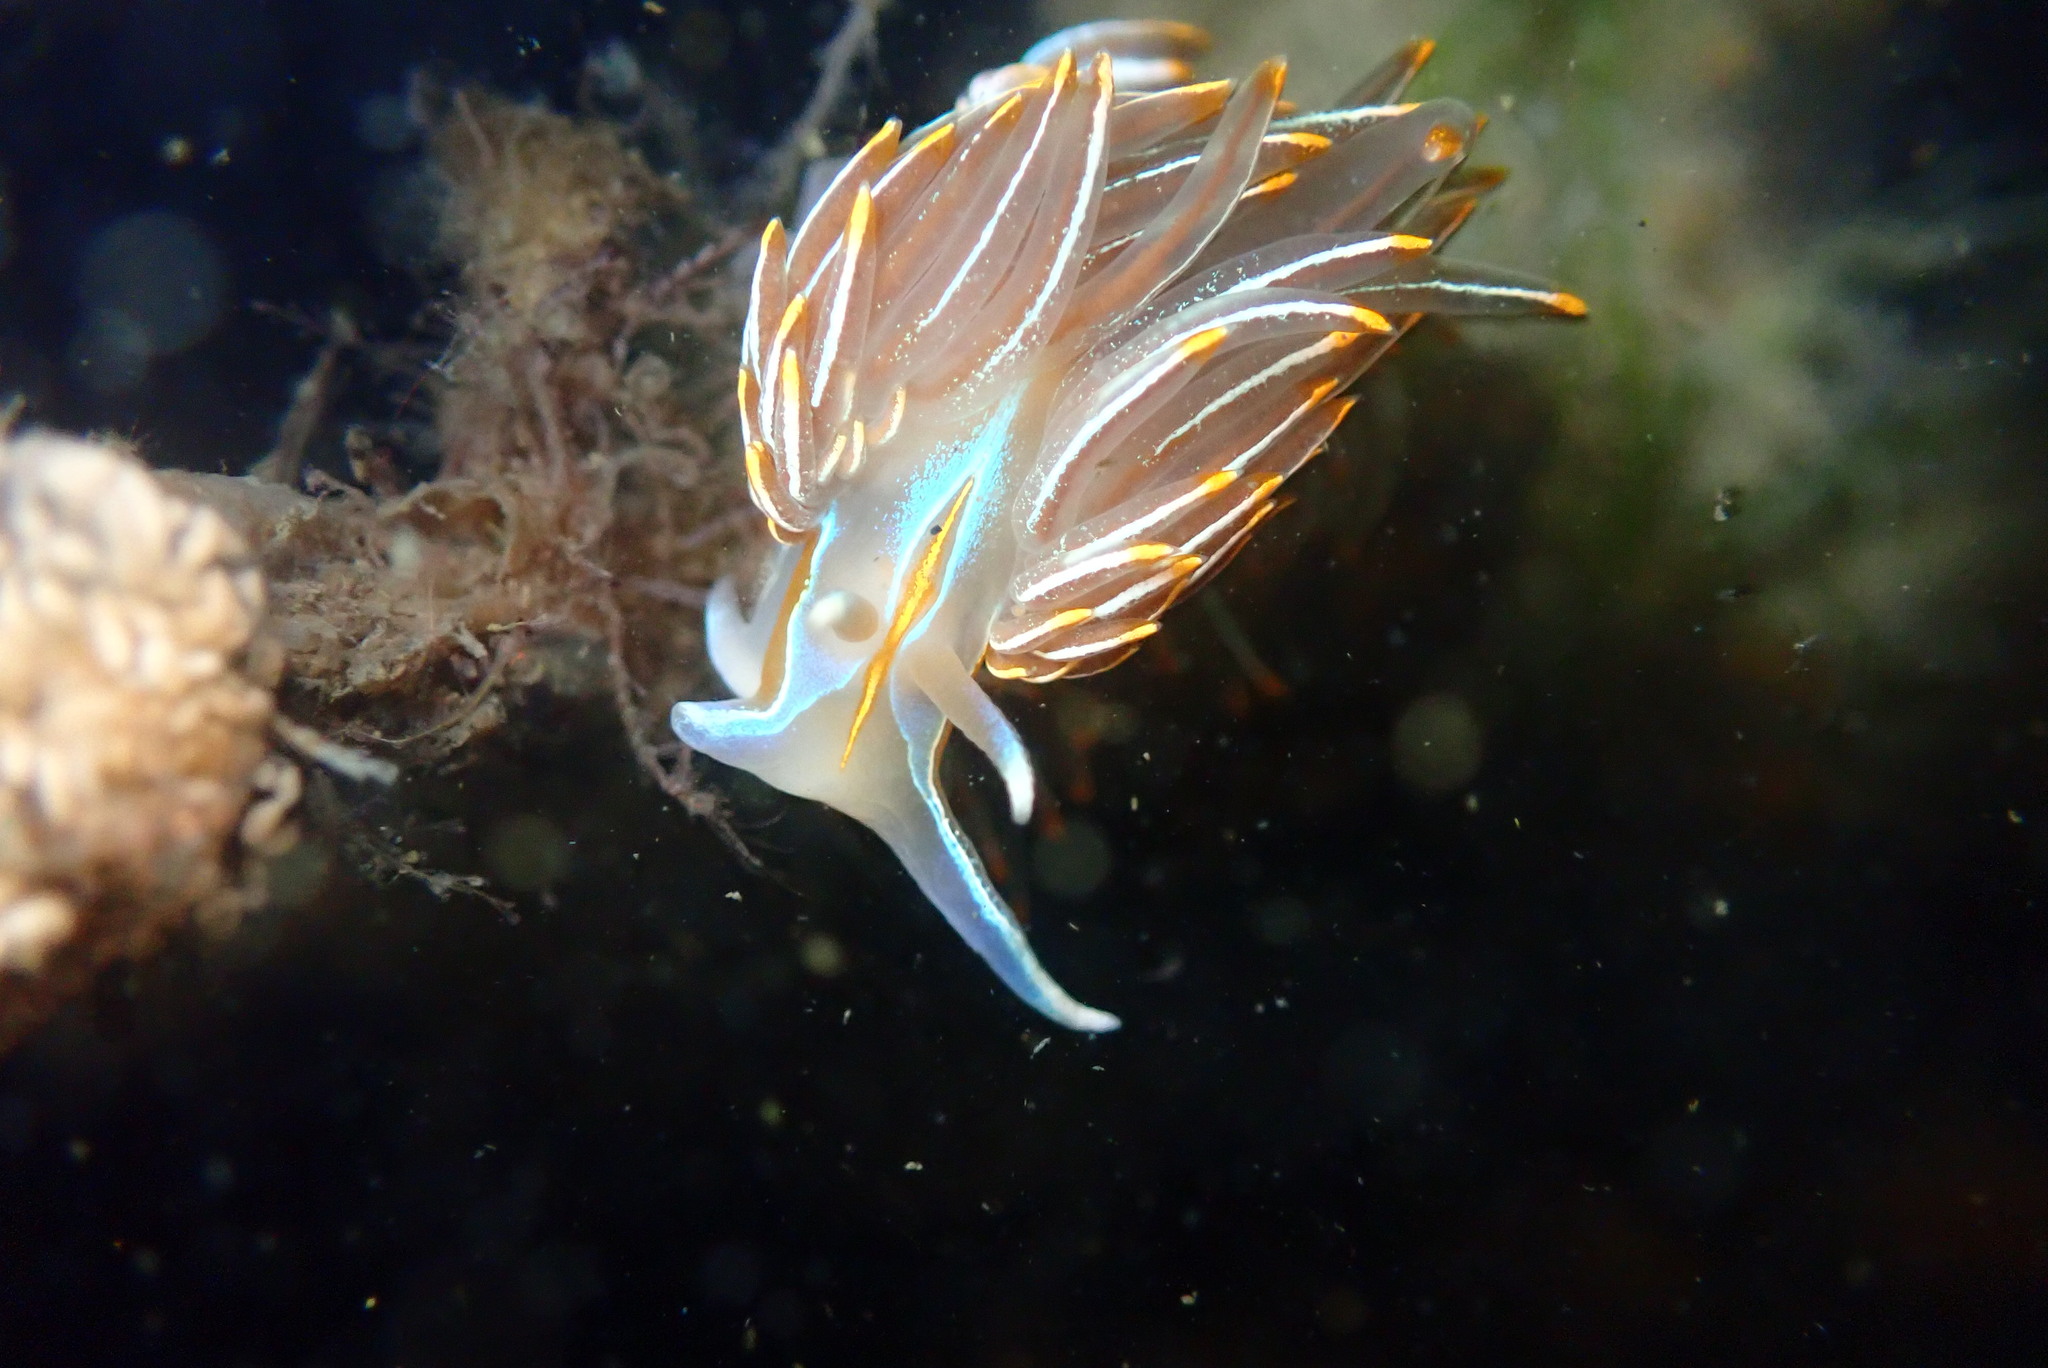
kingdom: Animalia
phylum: Mollusca
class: Gastropoda
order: Nudibranchia
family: Myrrhinidae
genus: Hermissenda
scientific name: Hermissenda crassicornis
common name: Hermissenda
